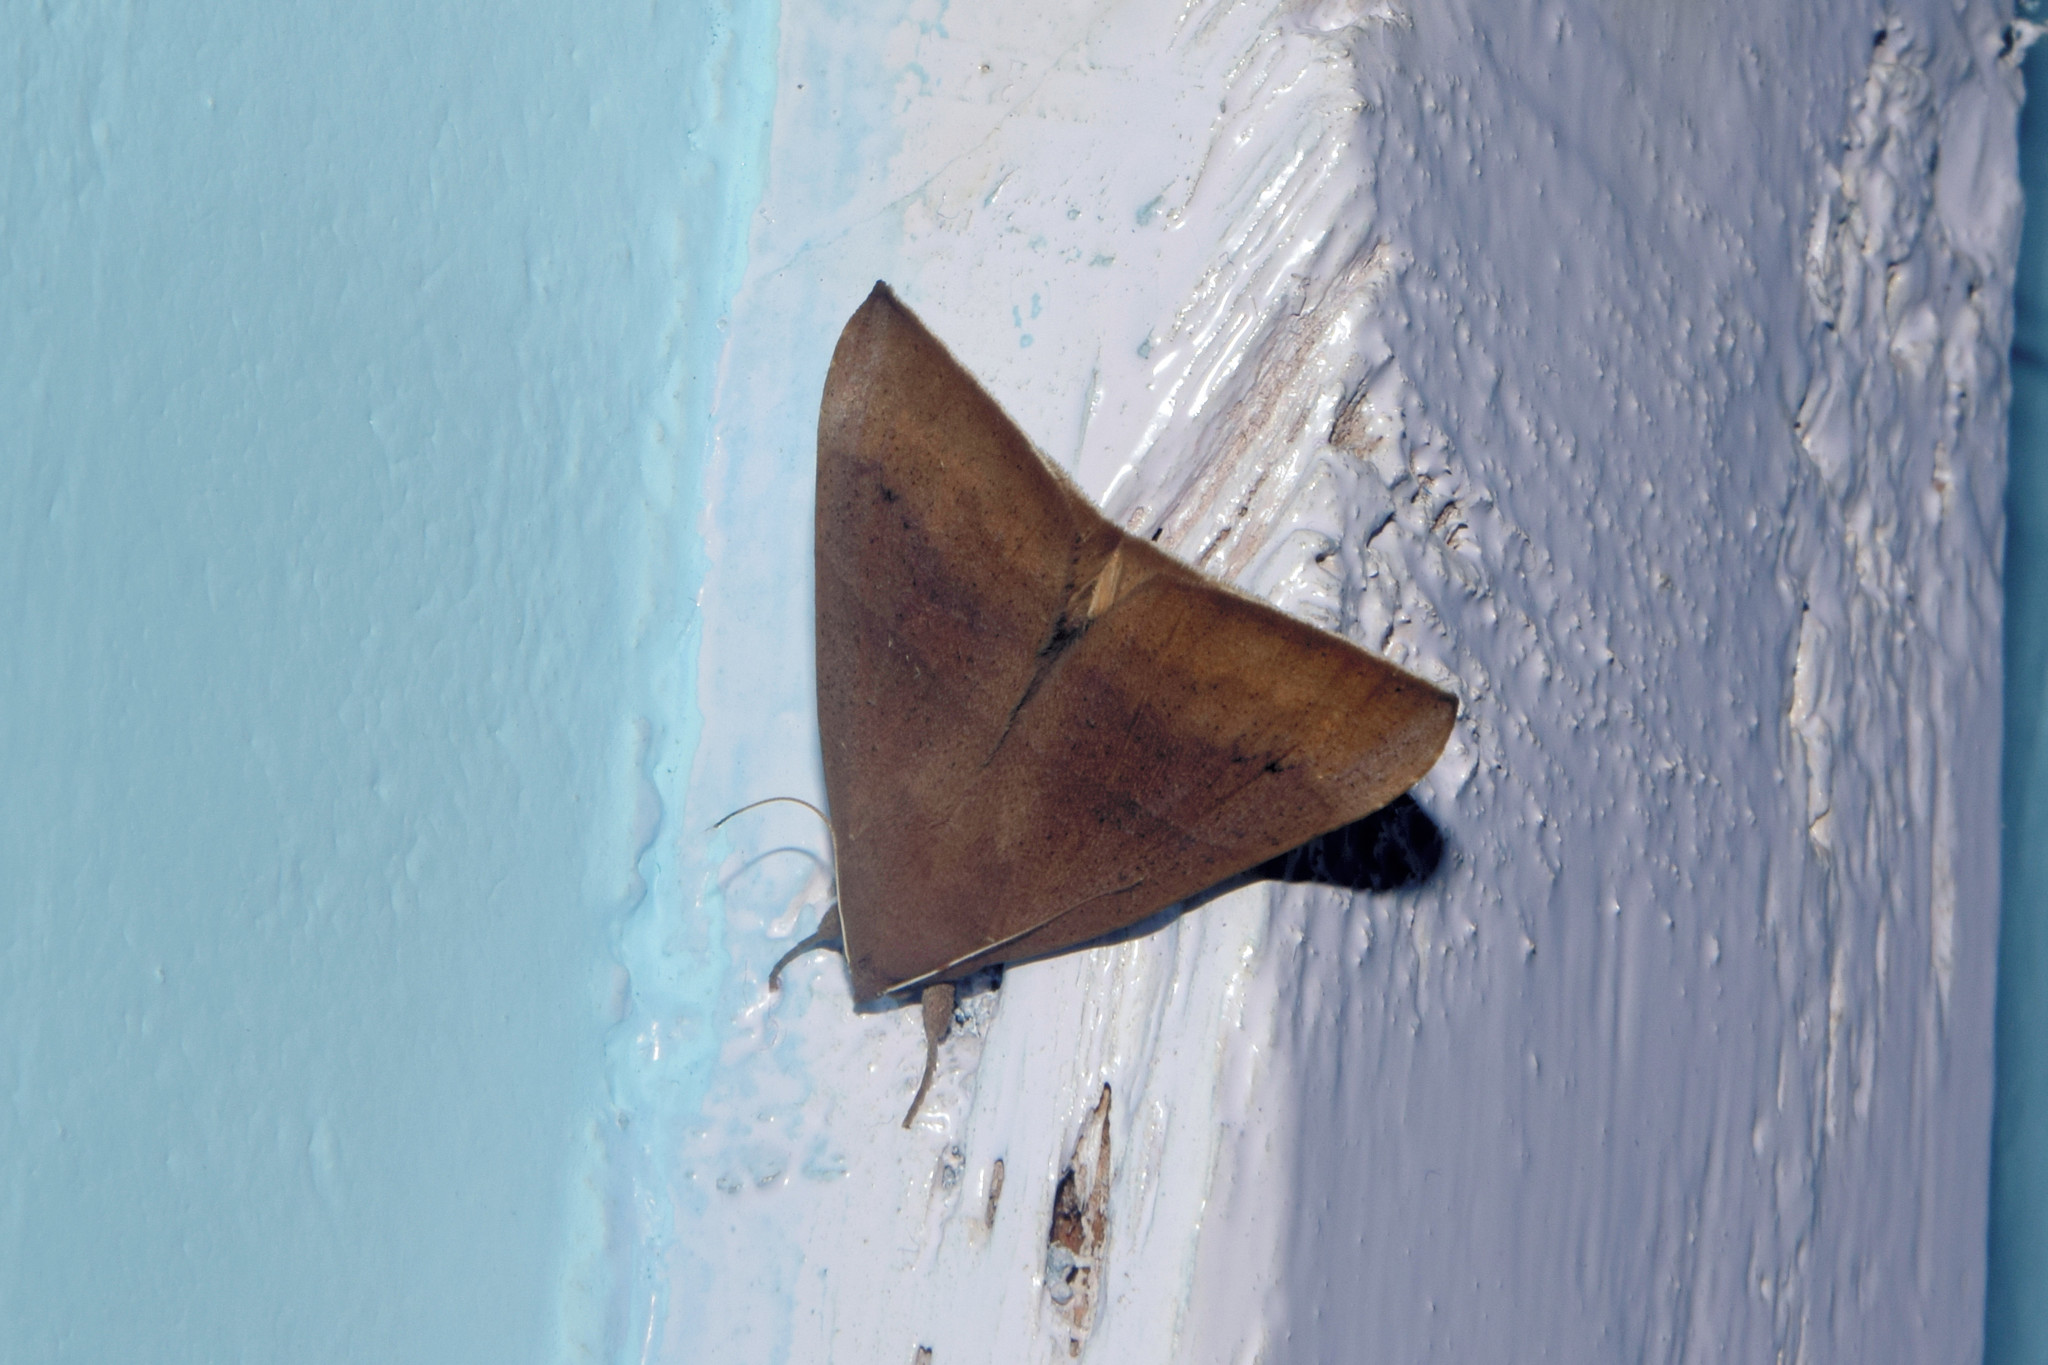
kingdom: Animalia
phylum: Arthropoda
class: Insecta
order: Lepidoptera
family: Erebidae
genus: Ophisma
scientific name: Ophisma gravata
